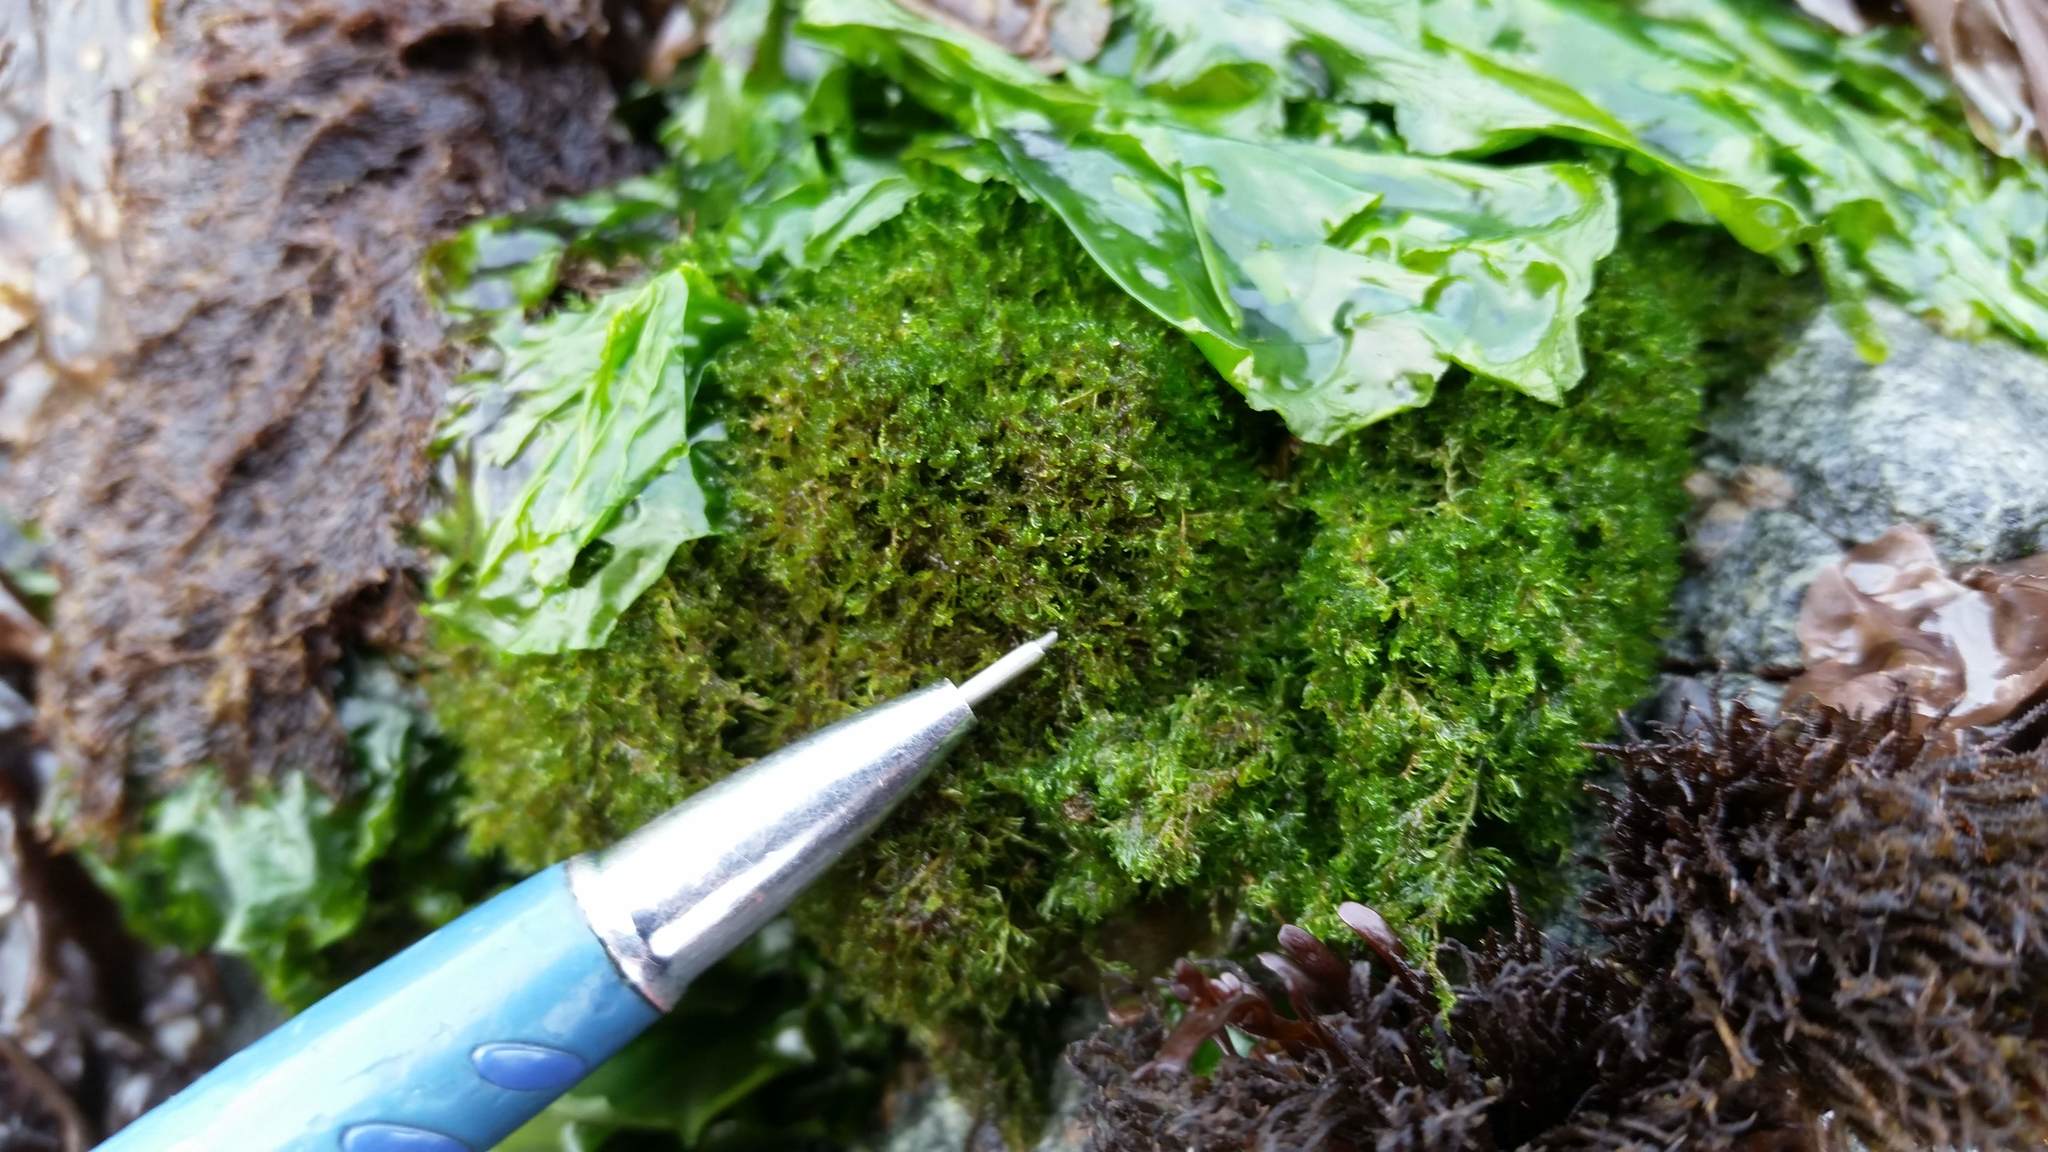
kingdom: Plantae
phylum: Chlorophyta
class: Ulvophyceae
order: Cladophorales
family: Cladophoraceae
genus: Cladophora
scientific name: Cladophora columbiana
